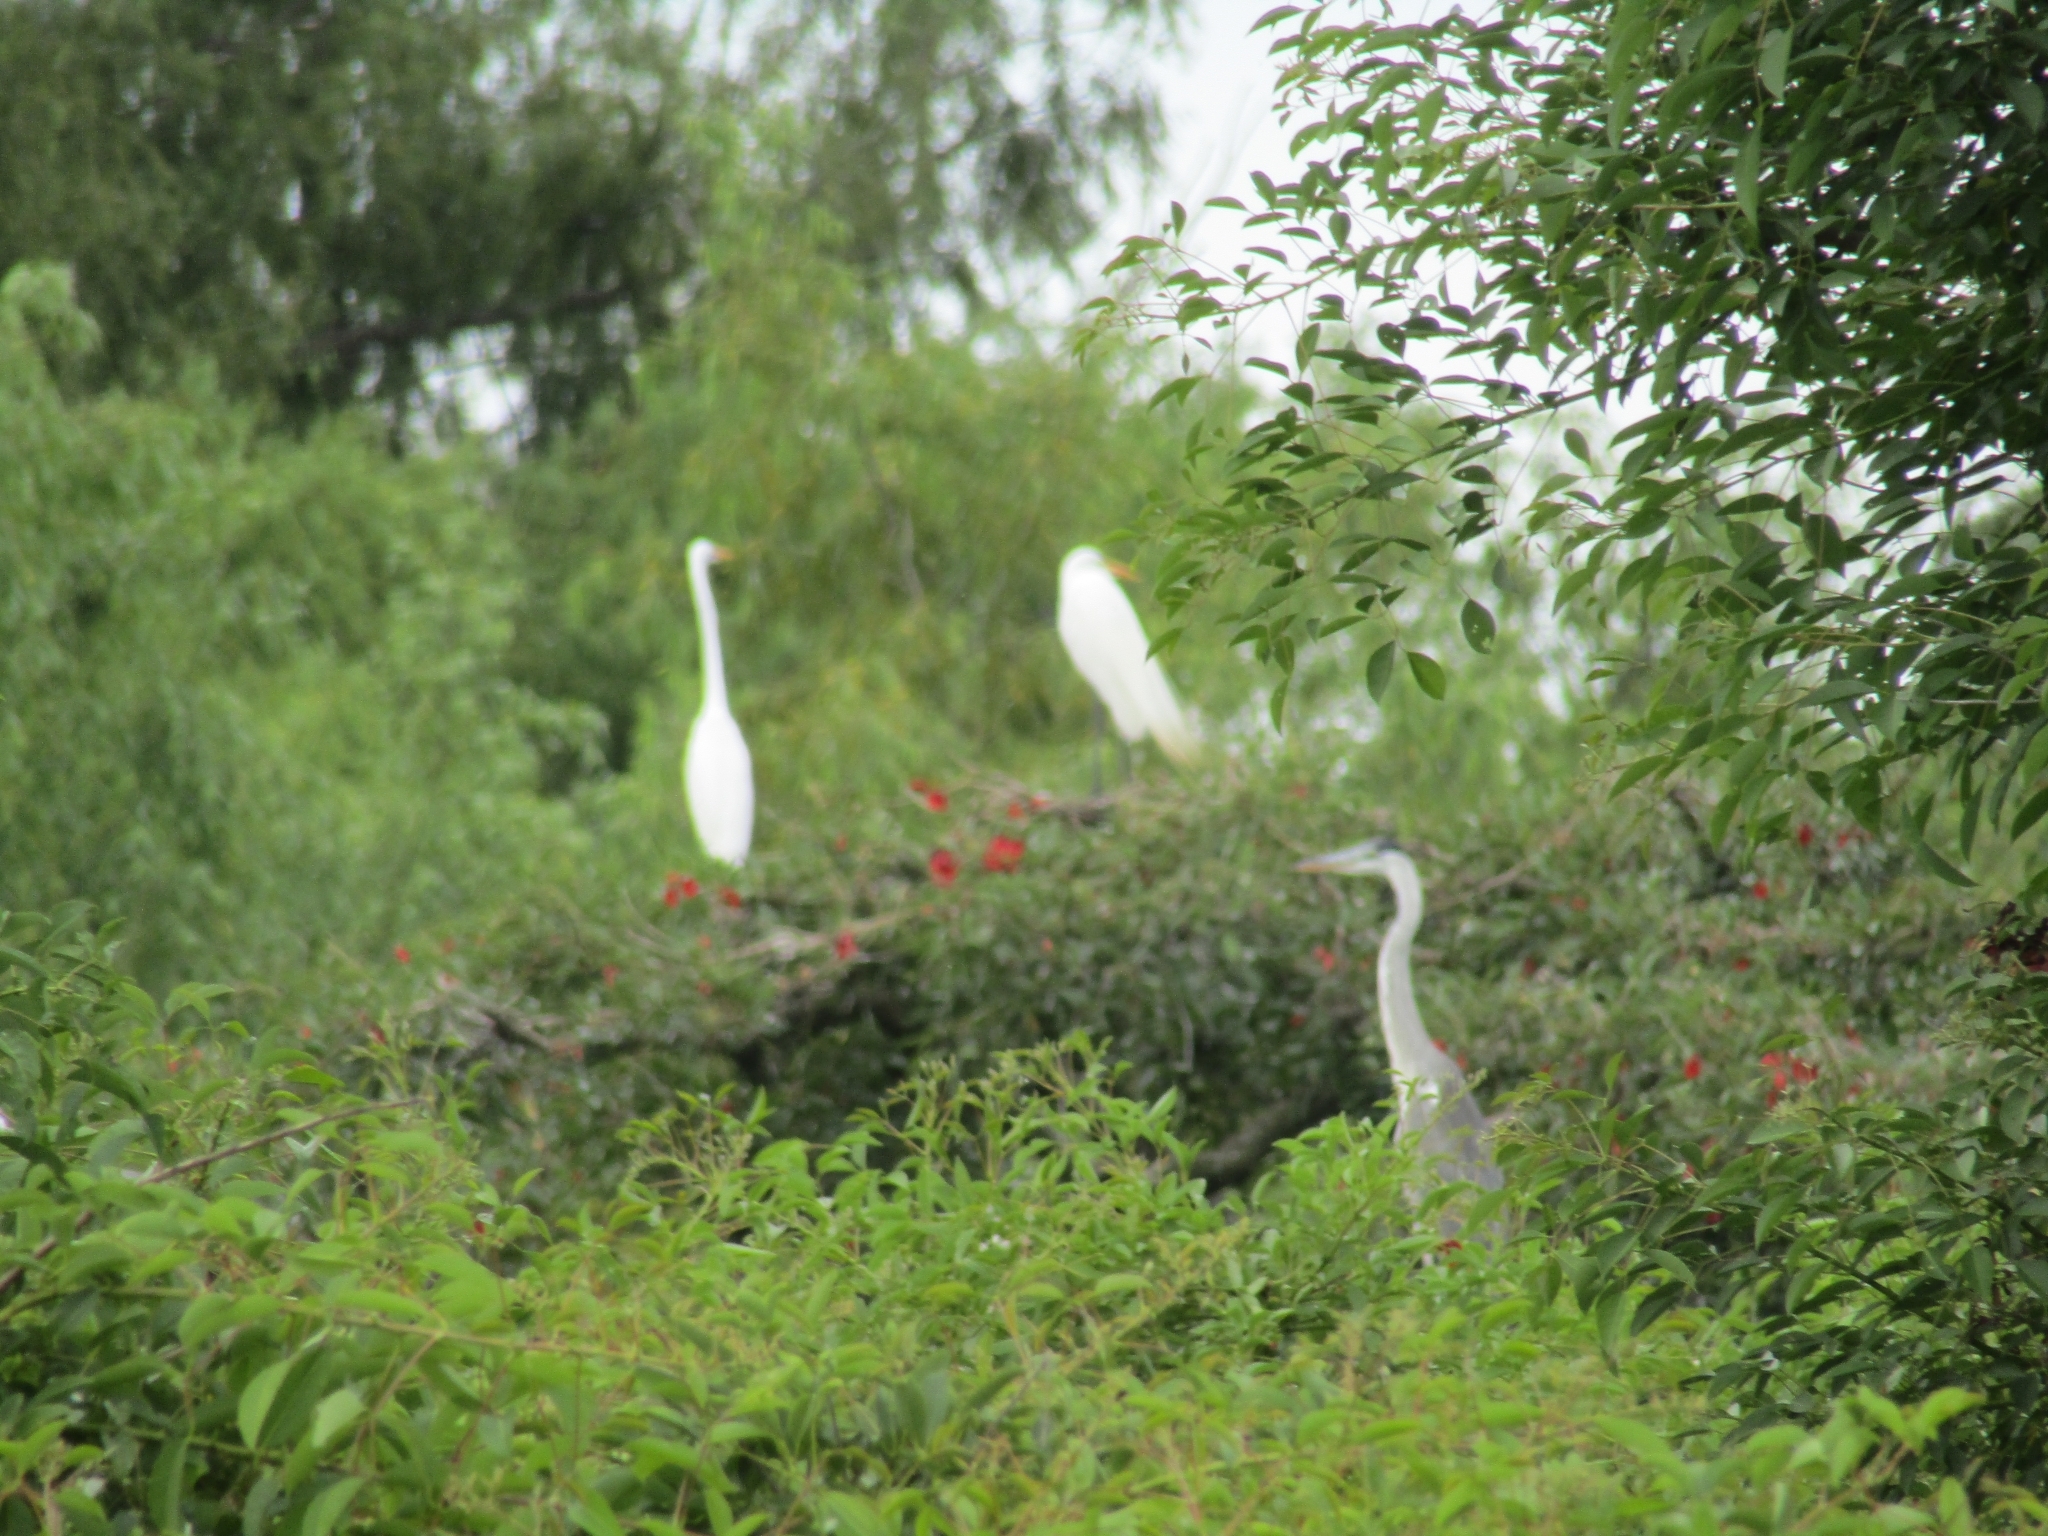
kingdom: Animalia
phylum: Chordata
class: Aves
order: Pelecaniformes
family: Ardeidae
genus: Ardea
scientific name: Ardea alba
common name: Great egret
